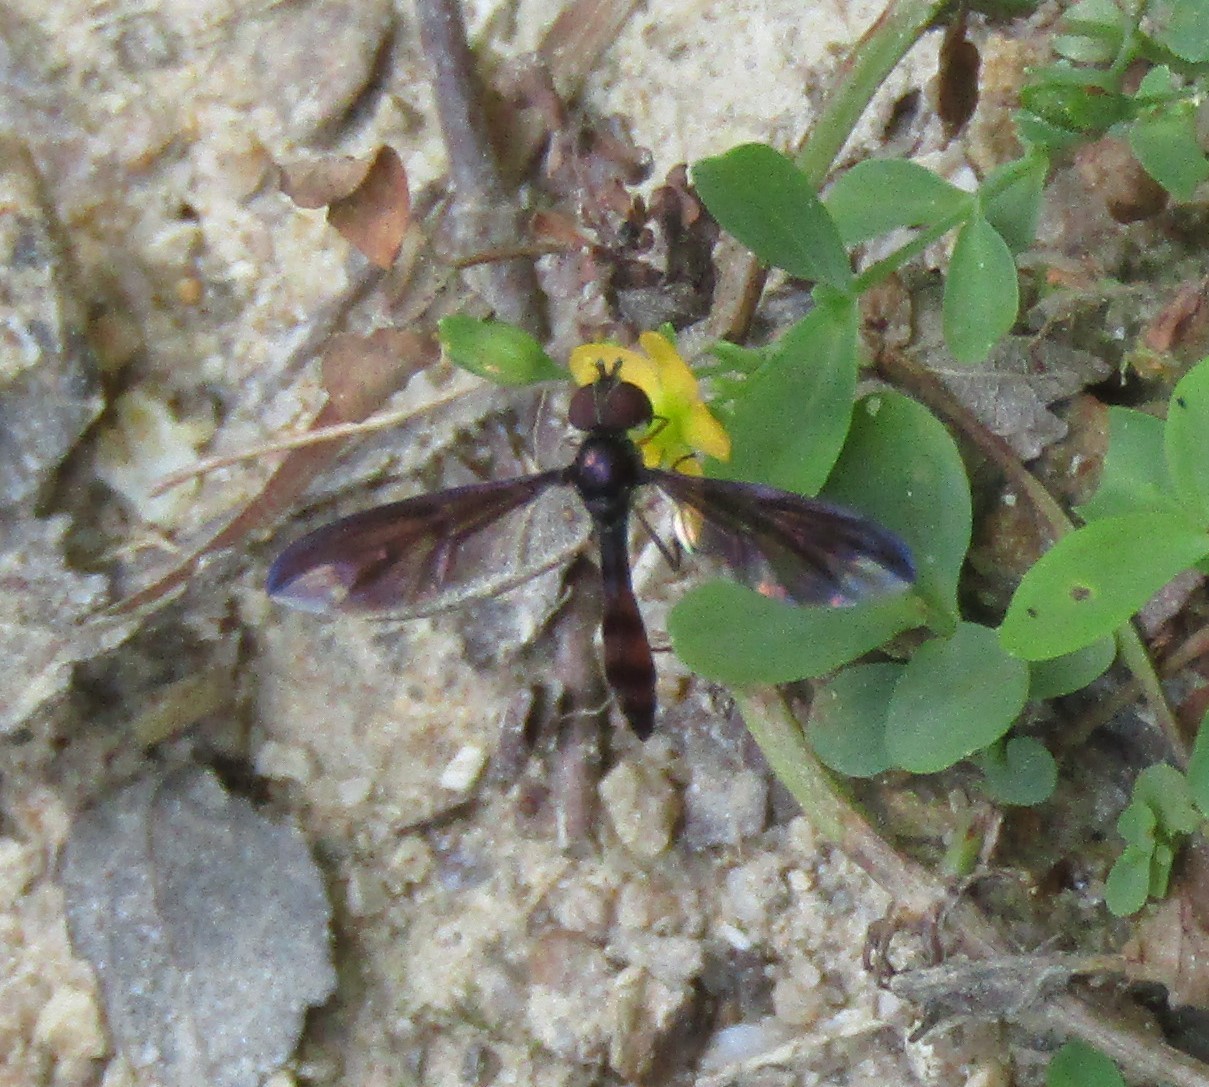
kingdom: Animalia
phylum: Arthropoda
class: Insecta
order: Diptera
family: Syrphidae
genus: Ocyptamus
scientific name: Ocyptamus fuscipennis
